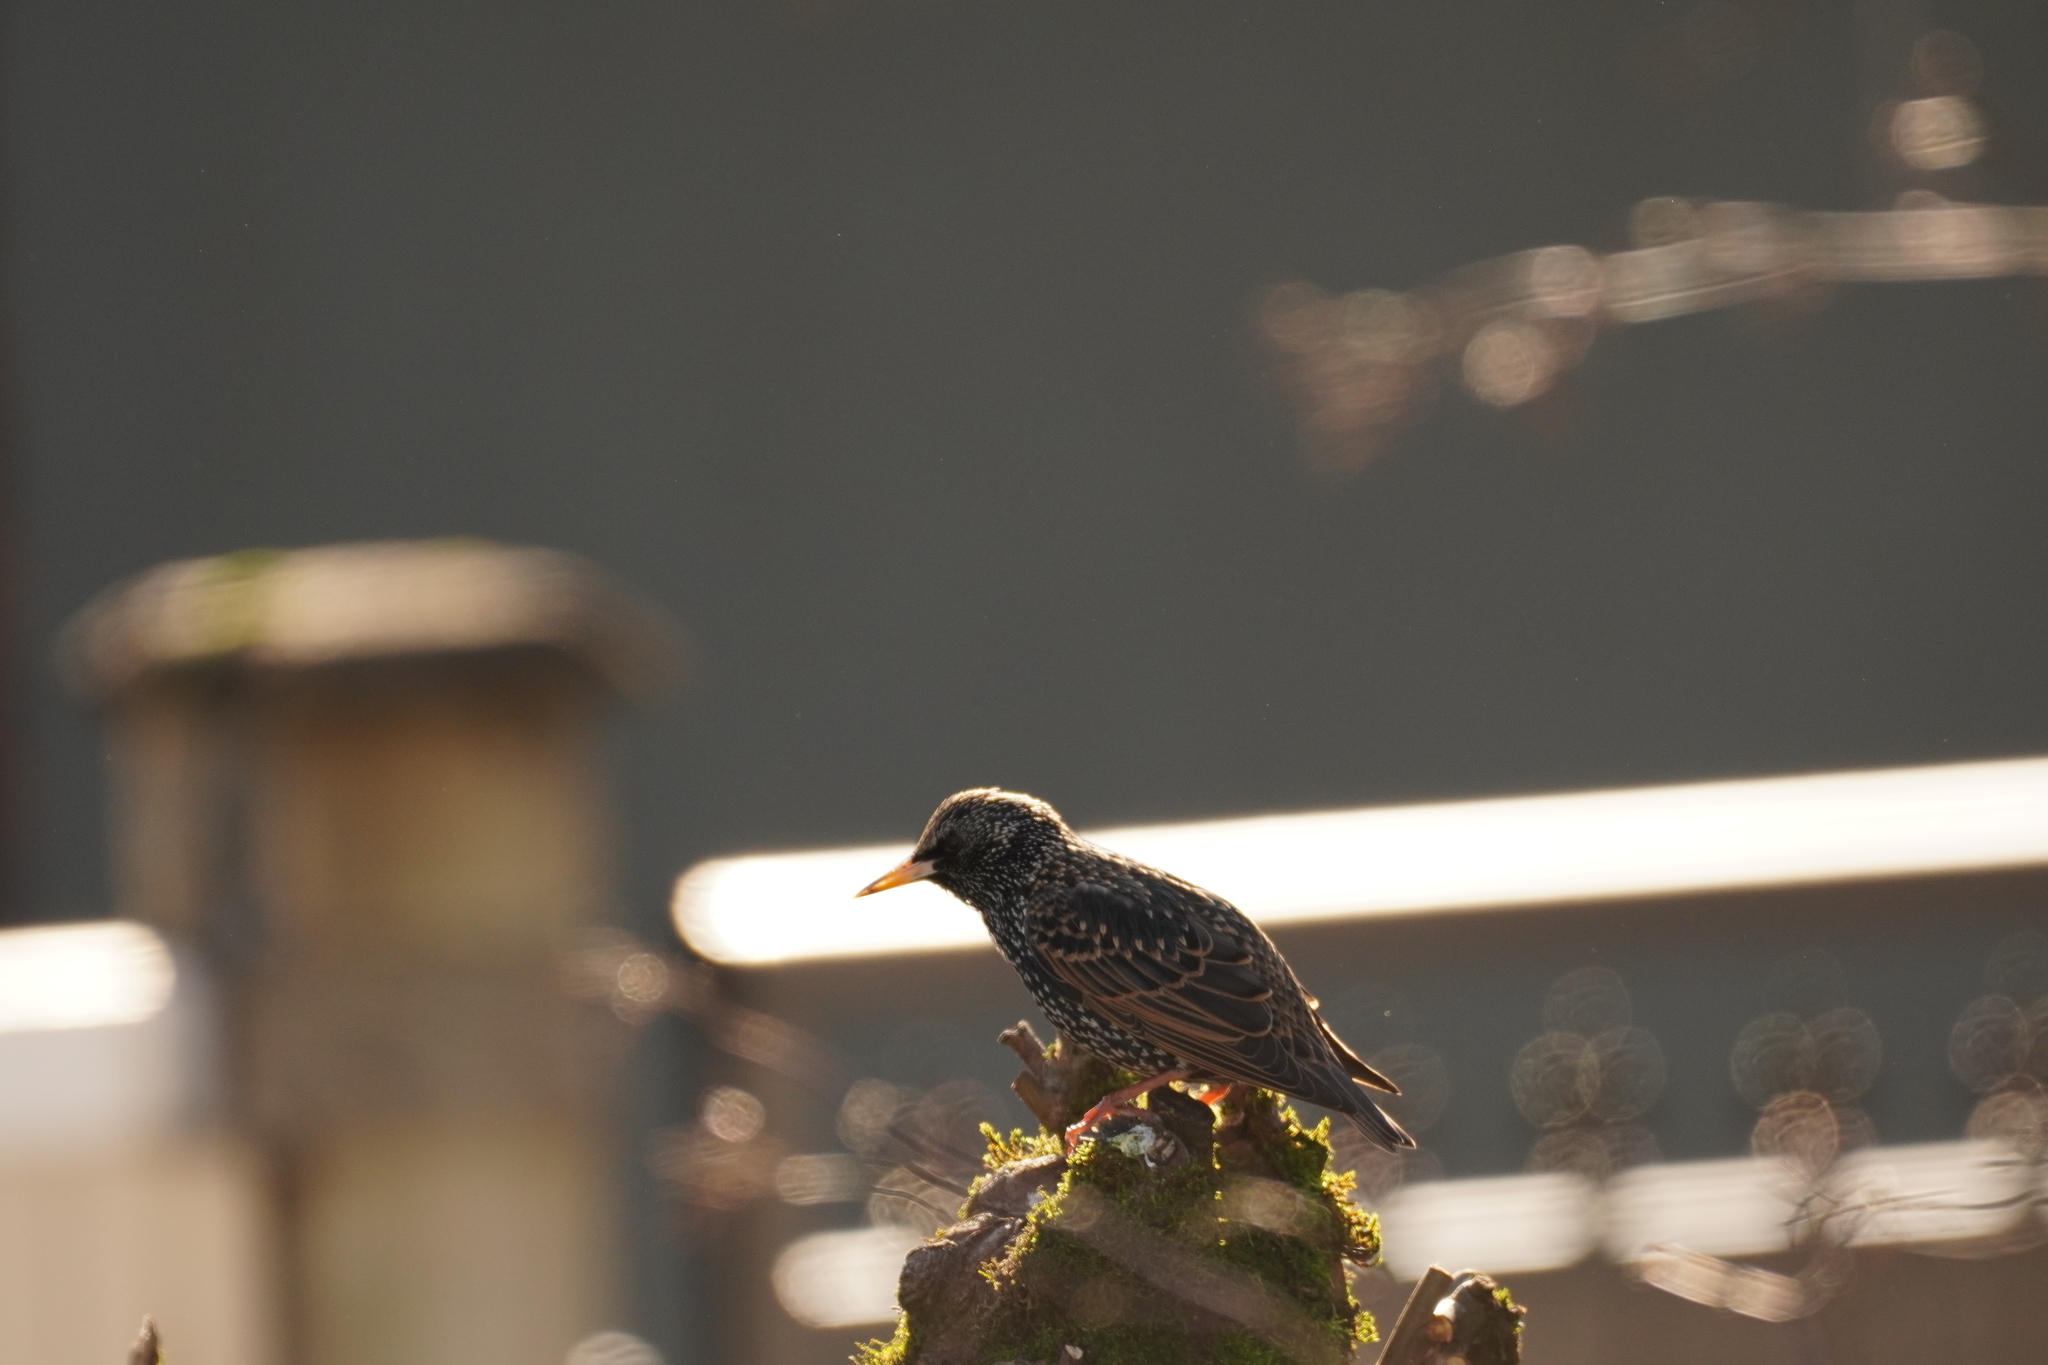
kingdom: Animalia
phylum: Chordata
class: Aves
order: Passeriformes
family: Sturnidae
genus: Sturnus
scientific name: Sturnus vulgaris
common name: Common starling
